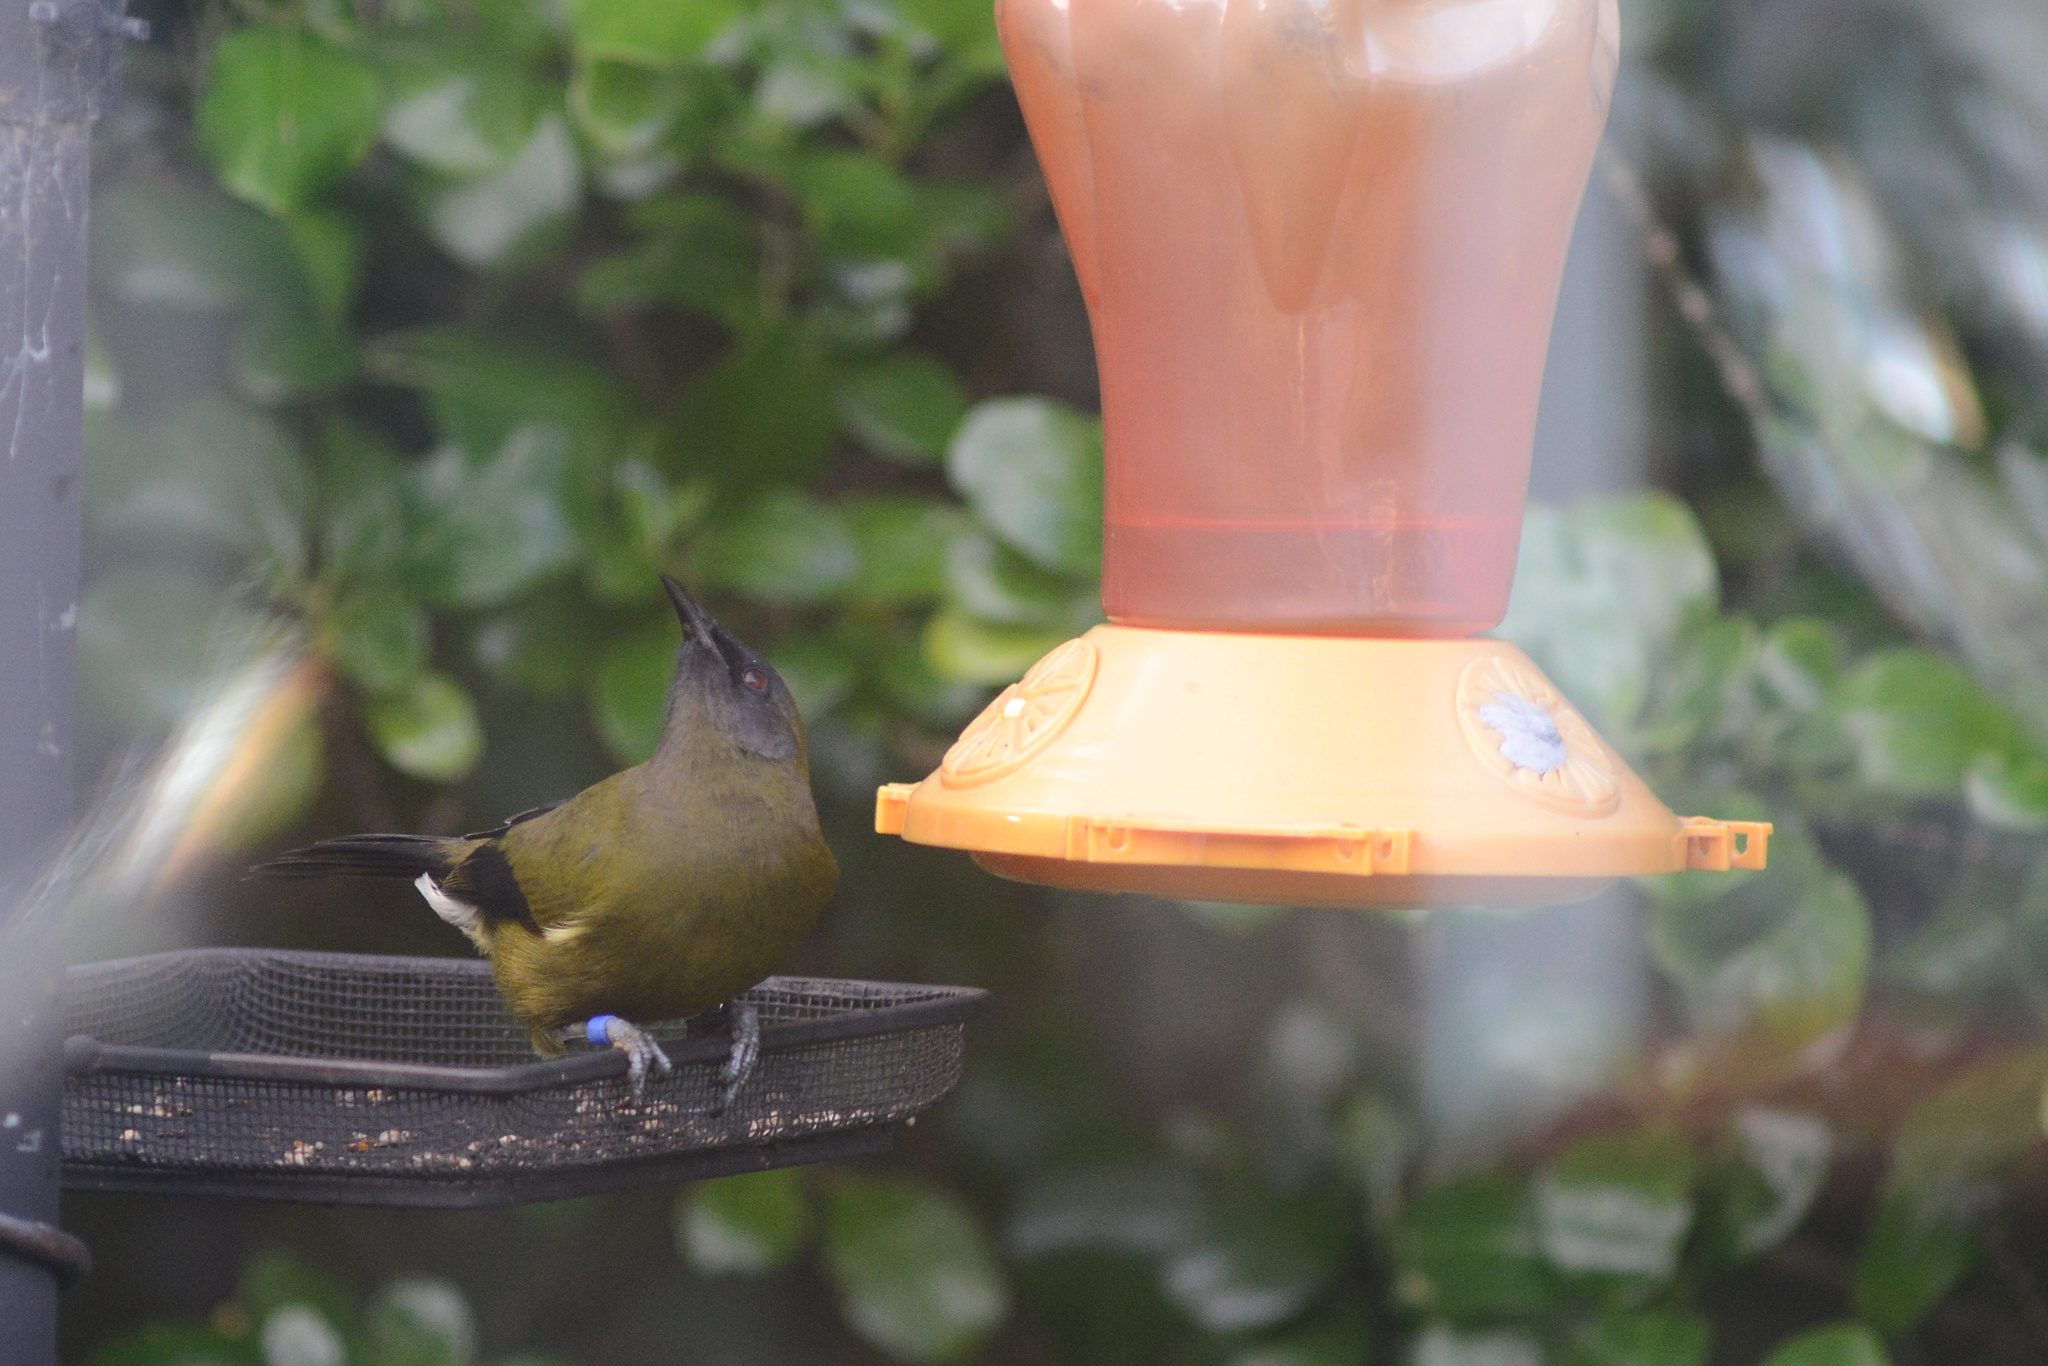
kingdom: Animalia
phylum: Chordata
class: Aves
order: Passeriformes
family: Meliphagidae
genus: Anthornis
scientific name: Anthornis melanura
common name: New zealand bellbird
